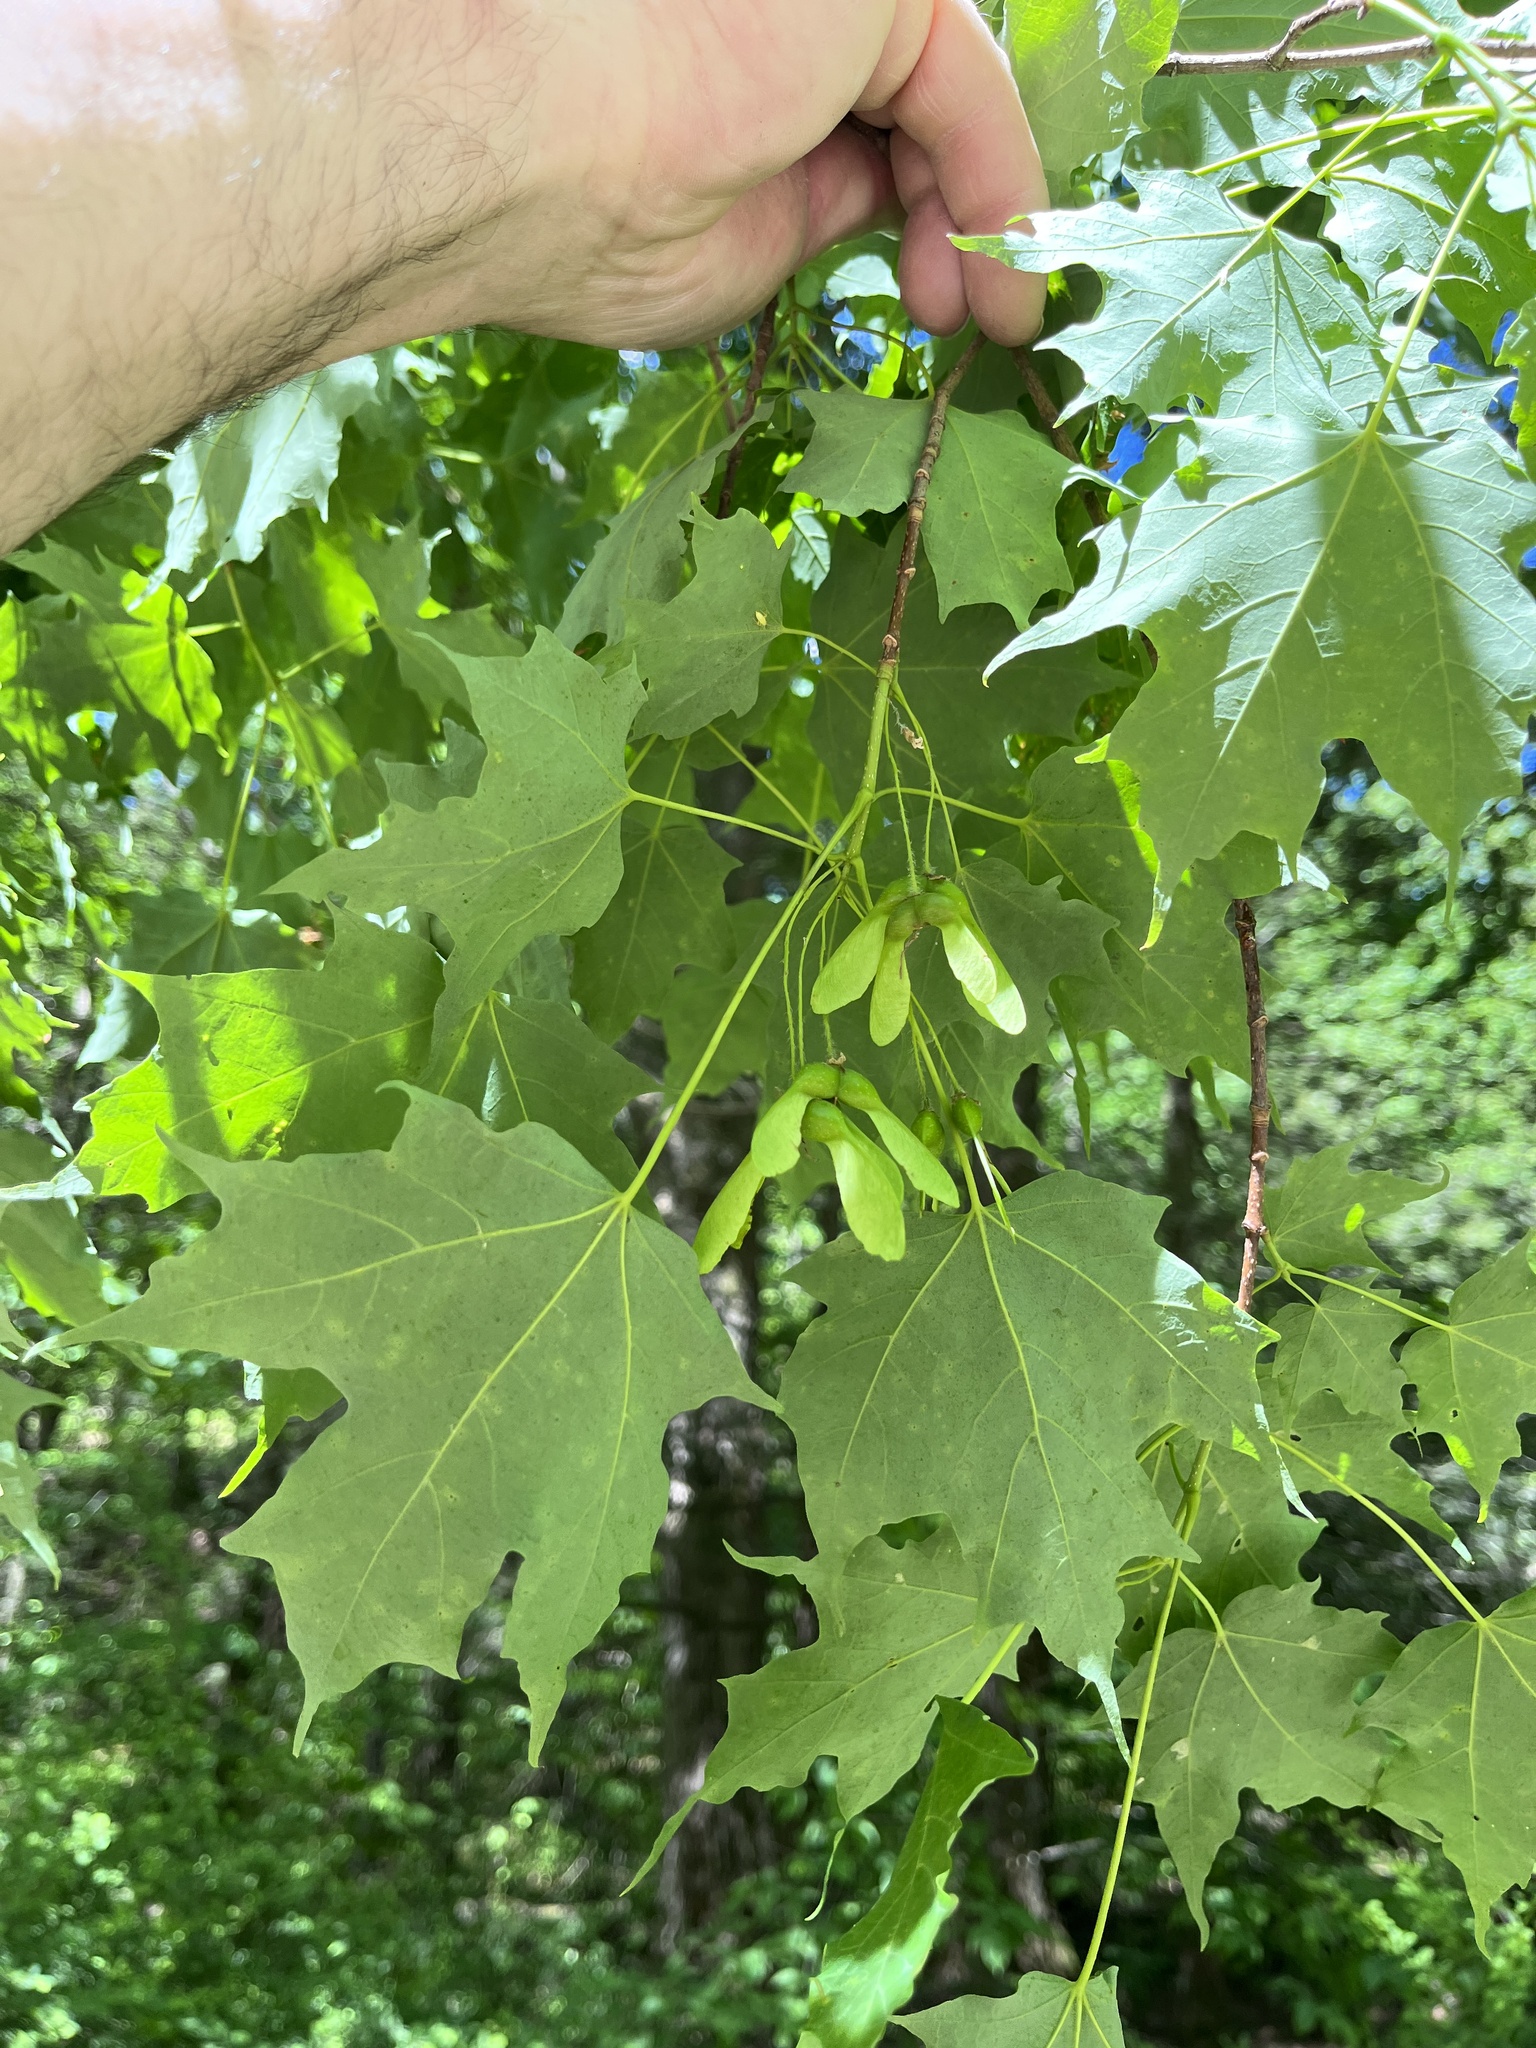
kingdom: Plantae
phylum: Tracheophyta
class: Magnoliopsida
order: Sapindales
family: Sapindaceae
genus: Acer
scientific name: Acer saccharum
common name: Sugar maple
